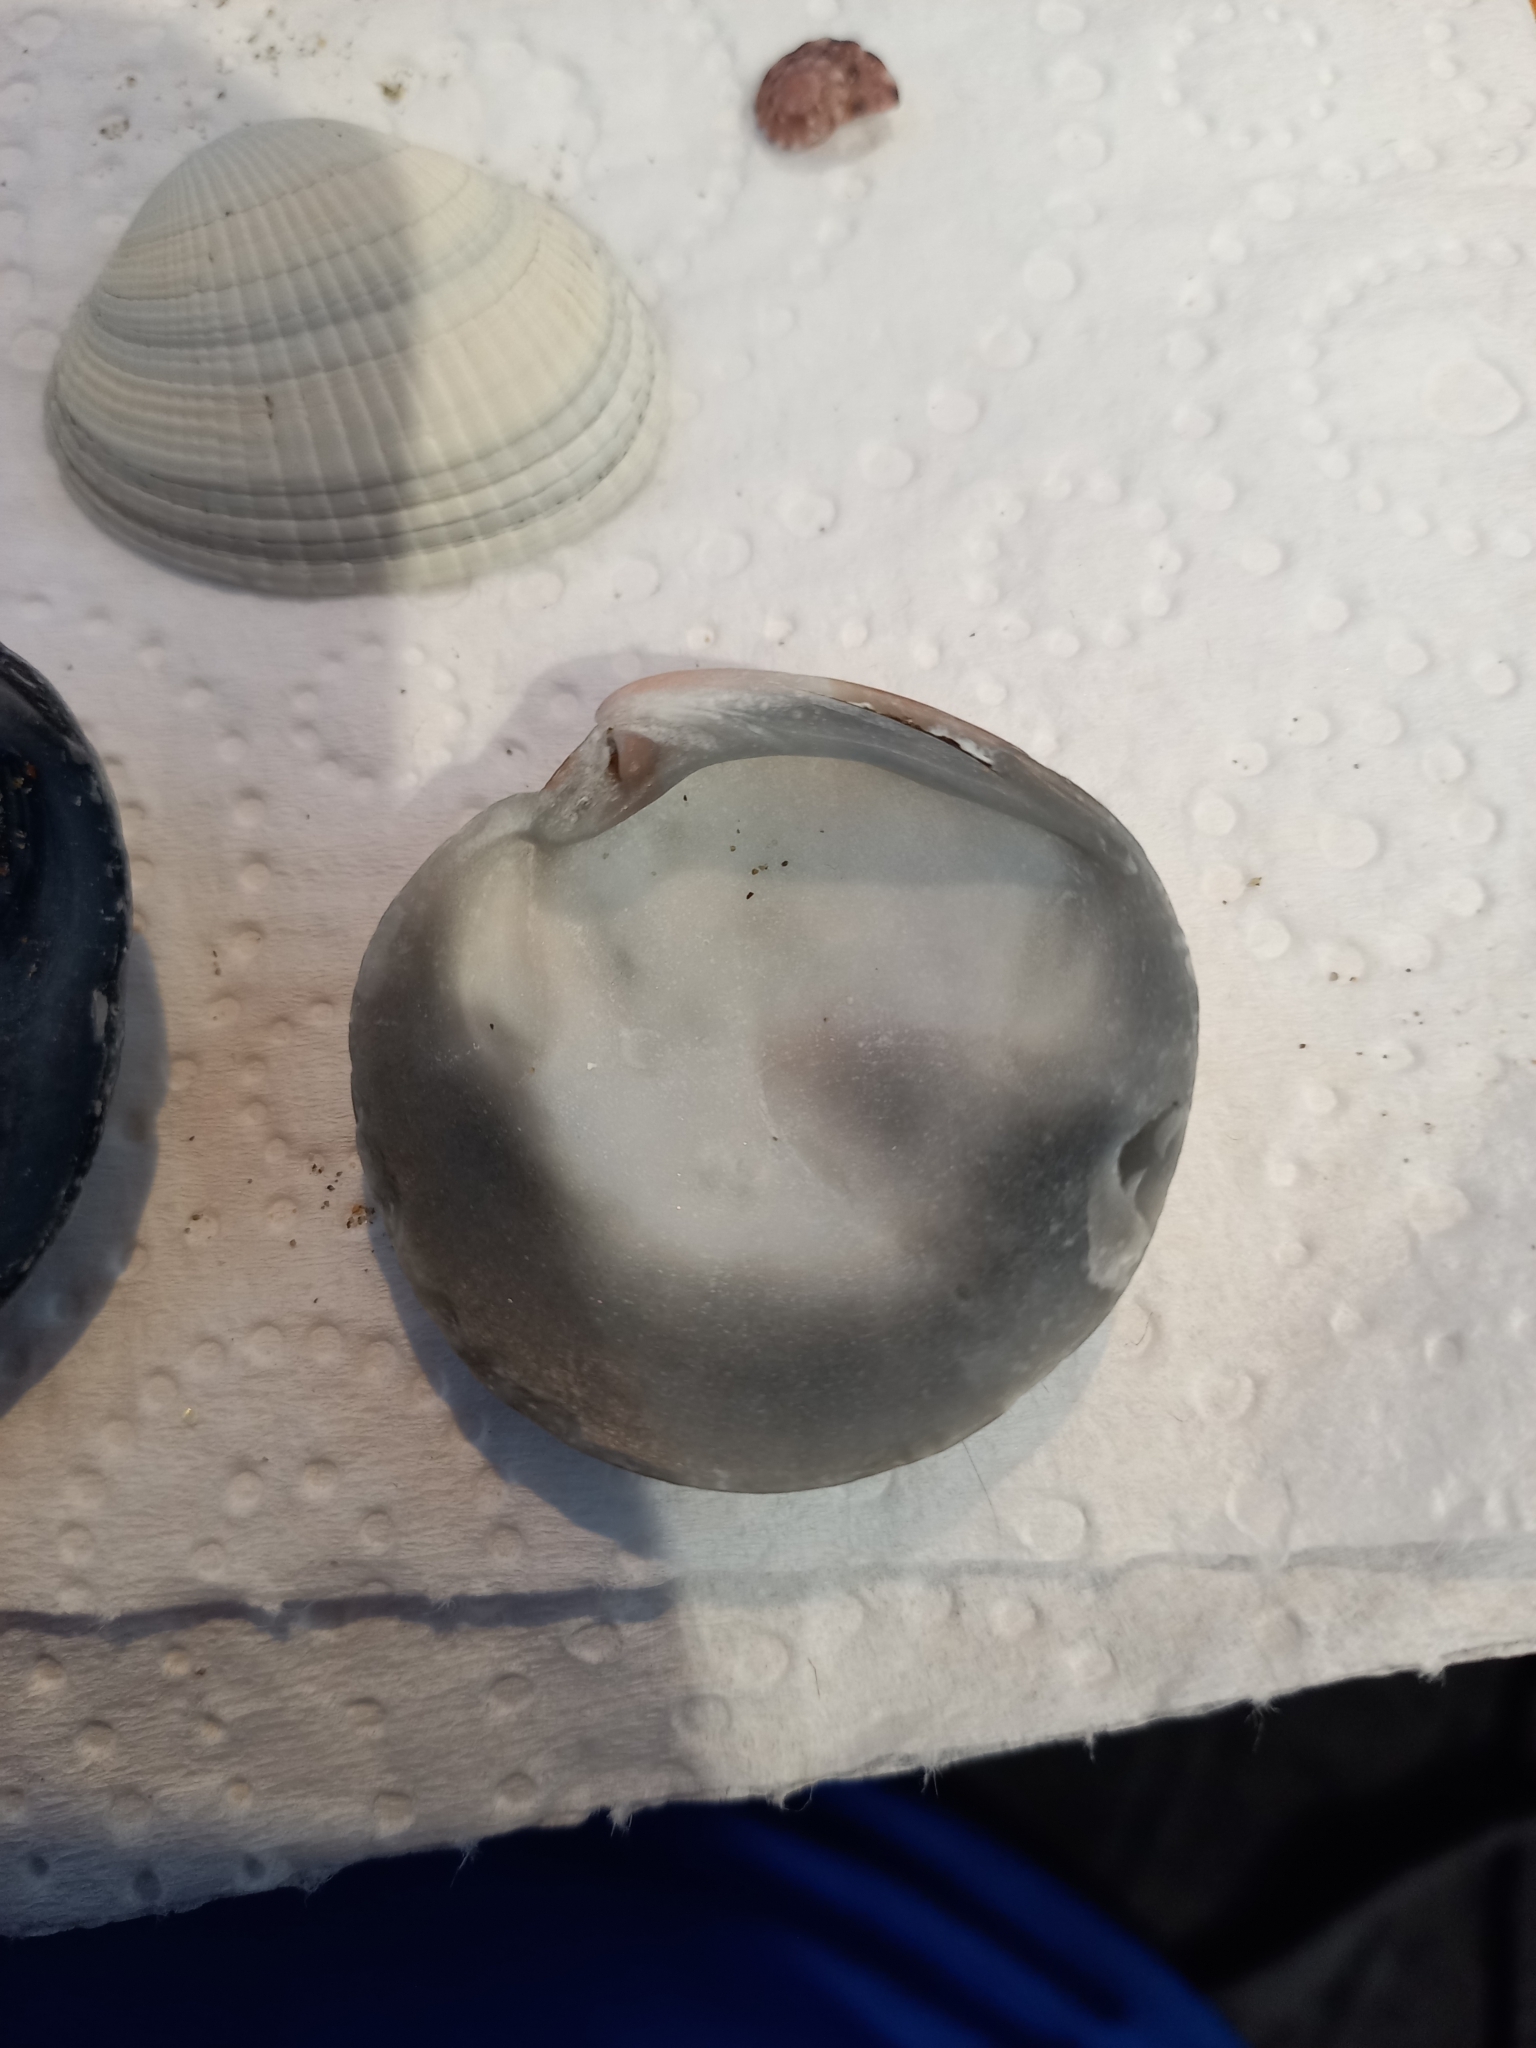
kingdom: Animalia
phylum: Mollusca
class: Bivalvia
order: Venerida
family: Veneridae
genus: Dosinia
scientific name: Dosinia subrosea
